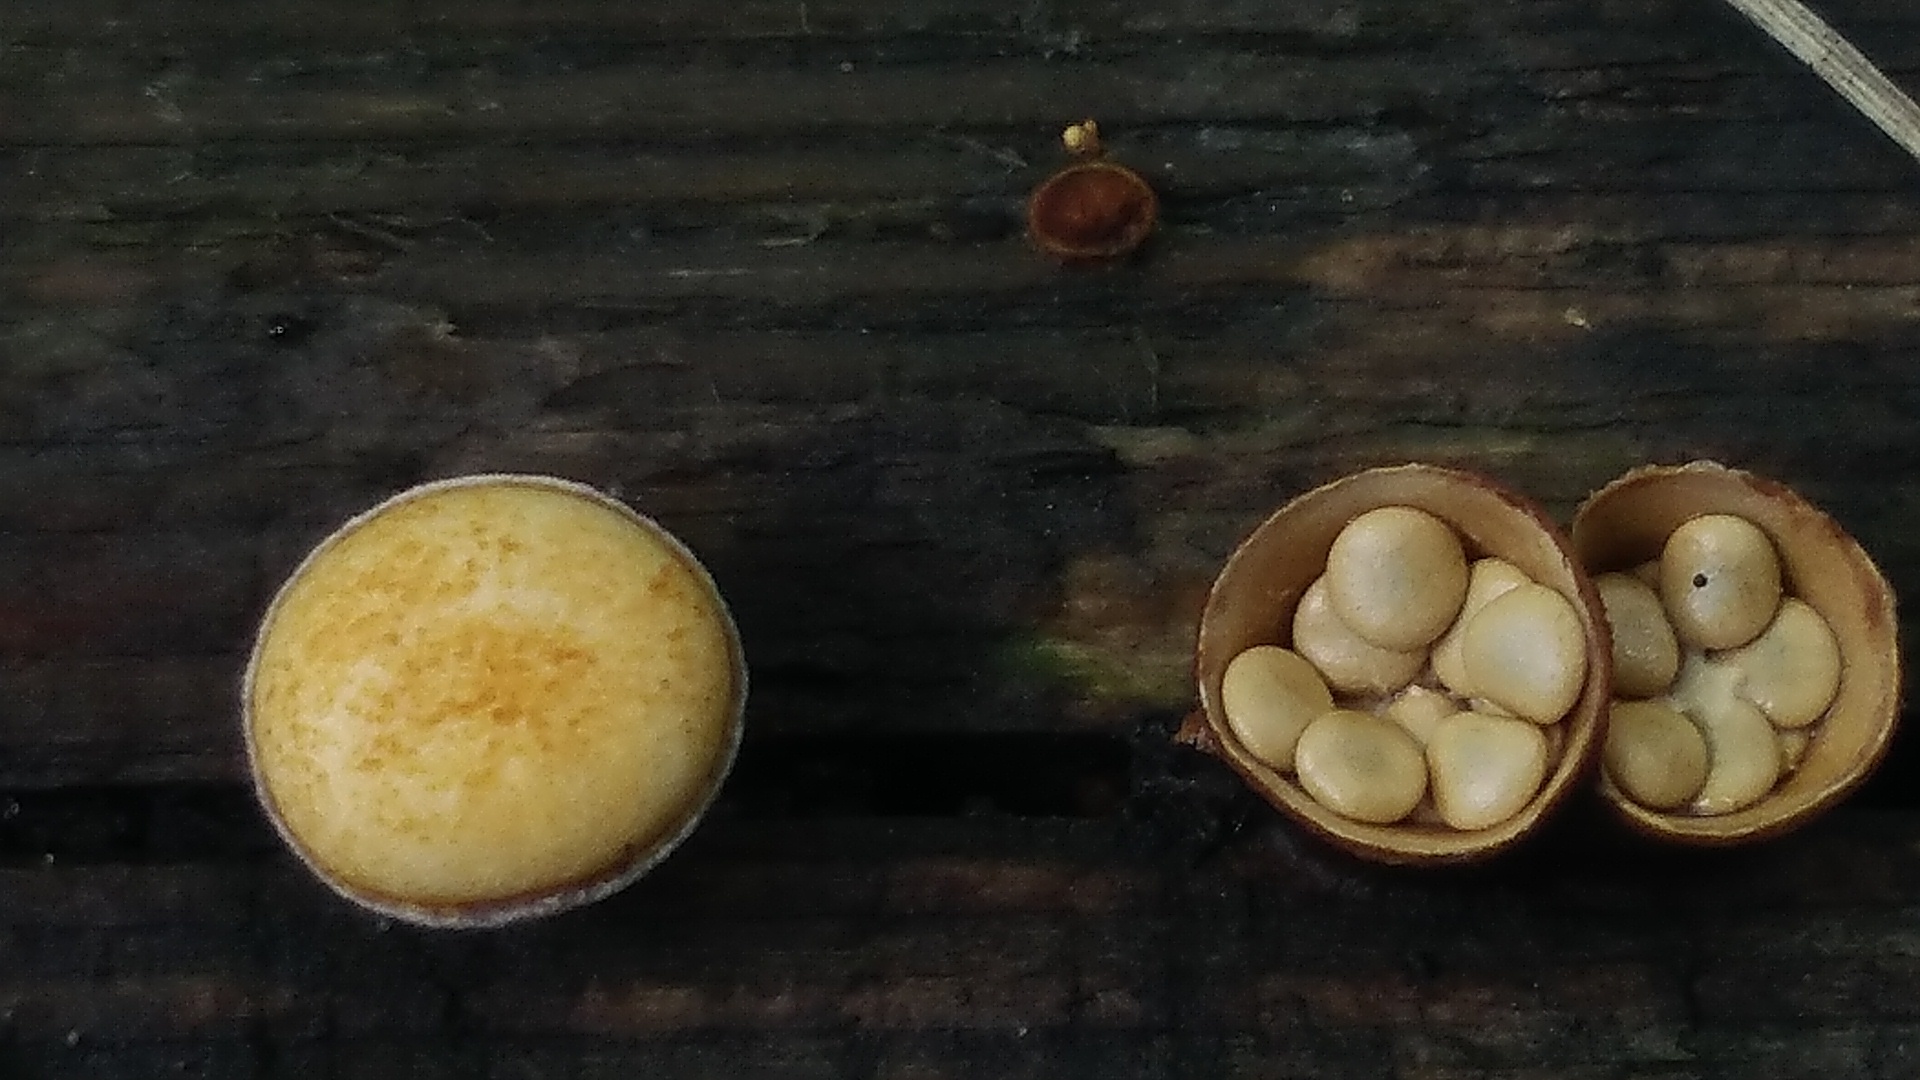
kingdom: Fungi
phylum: Basidiomycota
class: Agaricomycetes
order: Agaricales
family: Nidulariaceae
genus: Crucibulum
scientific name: Crucibulum laeve
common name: Common bird's nest
